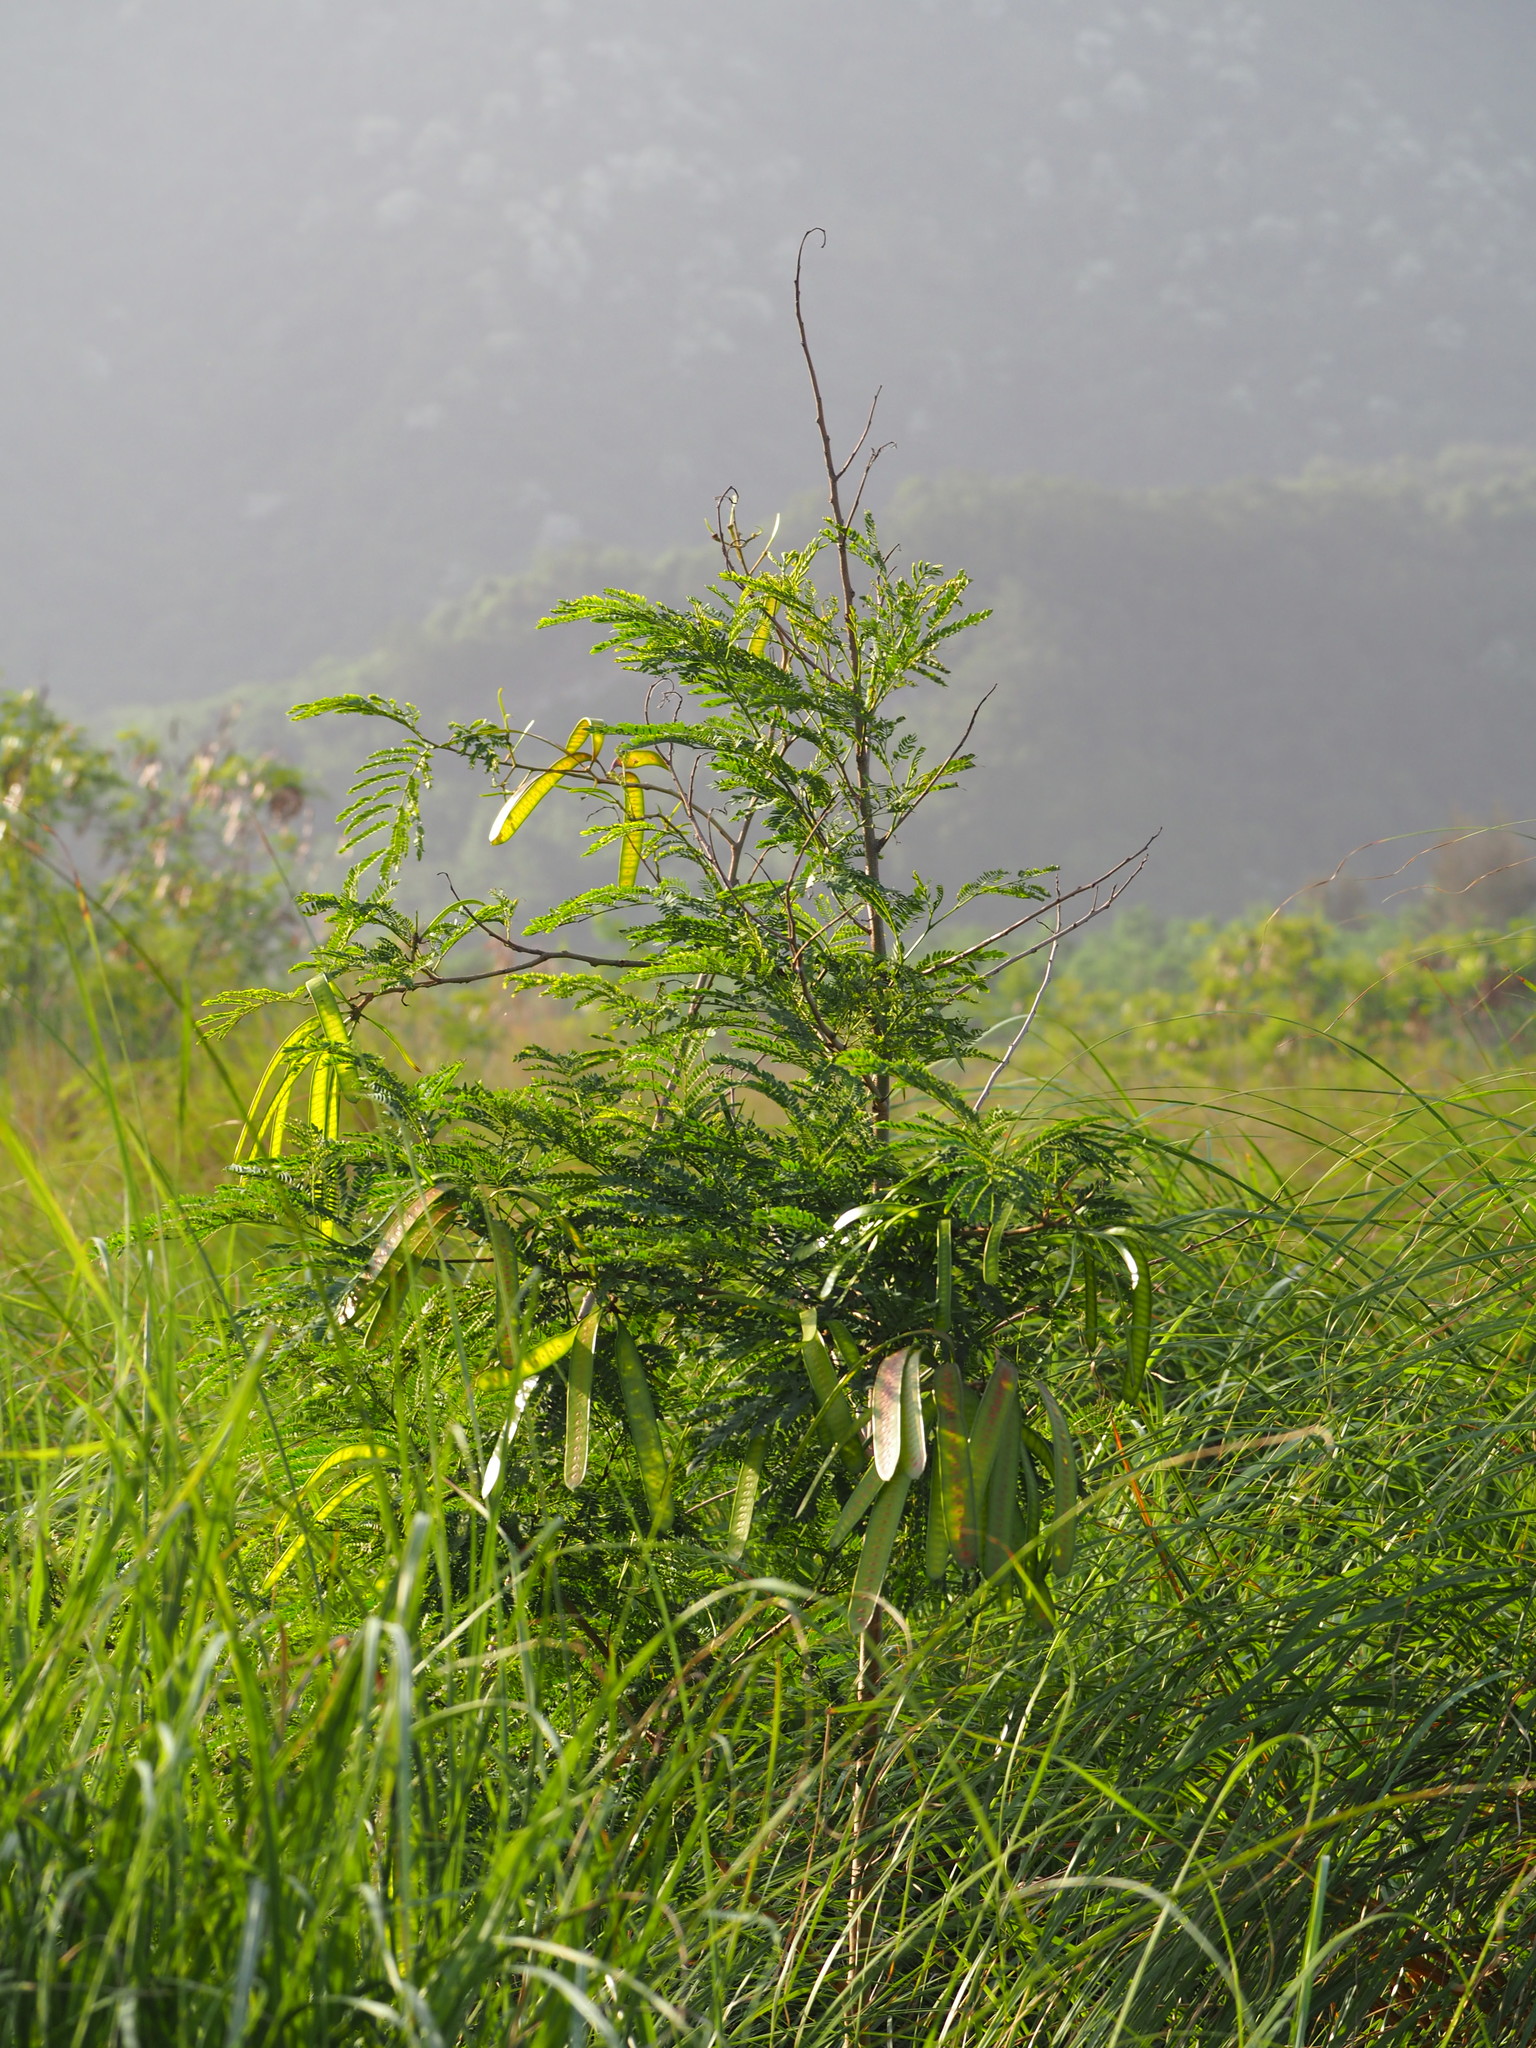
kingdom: Plantae
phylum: Tracheophyta
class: Magnoliopsida
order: Fabales
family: Fabaceae
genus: Leucaena
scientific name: Leucaena leucocephala
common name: White leadtree
